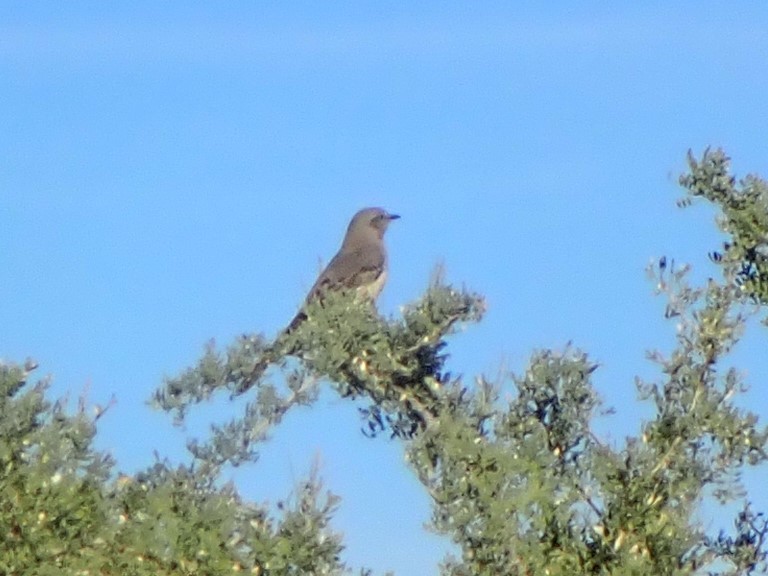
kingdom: Animalia
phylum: Chordata
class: Aves
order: Passeriformes
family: Mimidae
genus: Mimus
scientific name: Mimus polyglottos
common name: Northern mockingbird
